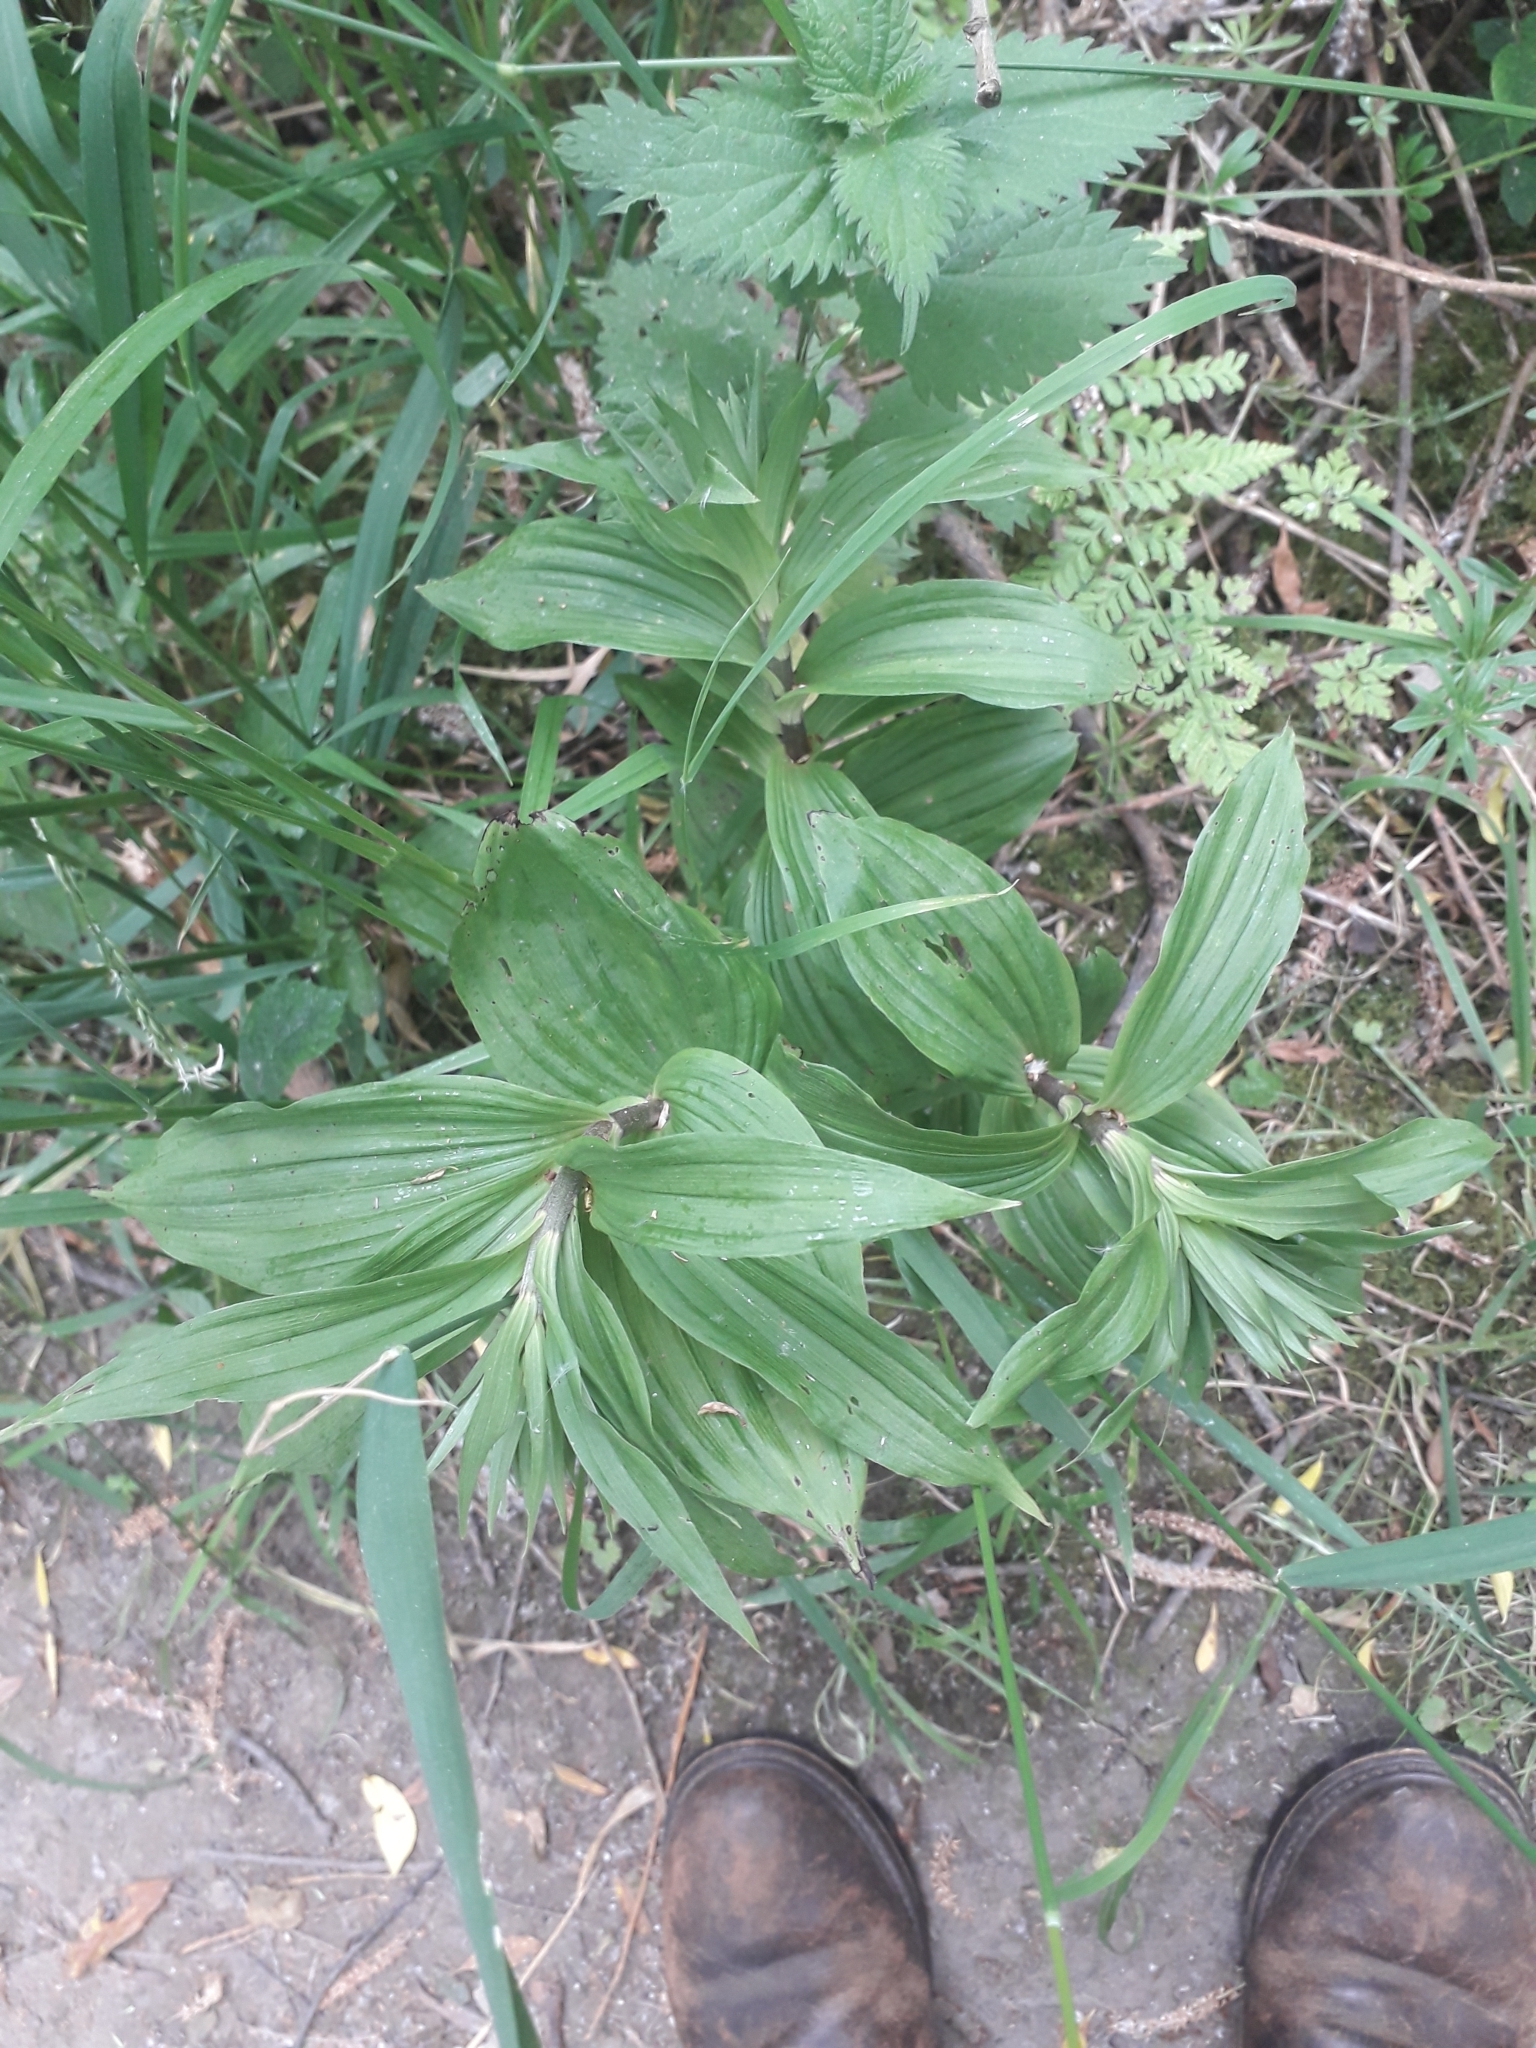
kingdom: Plantae
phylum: Tracheophyta
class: Liliopsida
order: Asparagales
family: Orchidaceae
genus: Epipactis
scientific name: Epipactis helleborine
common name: Broad-leaved helleborine
